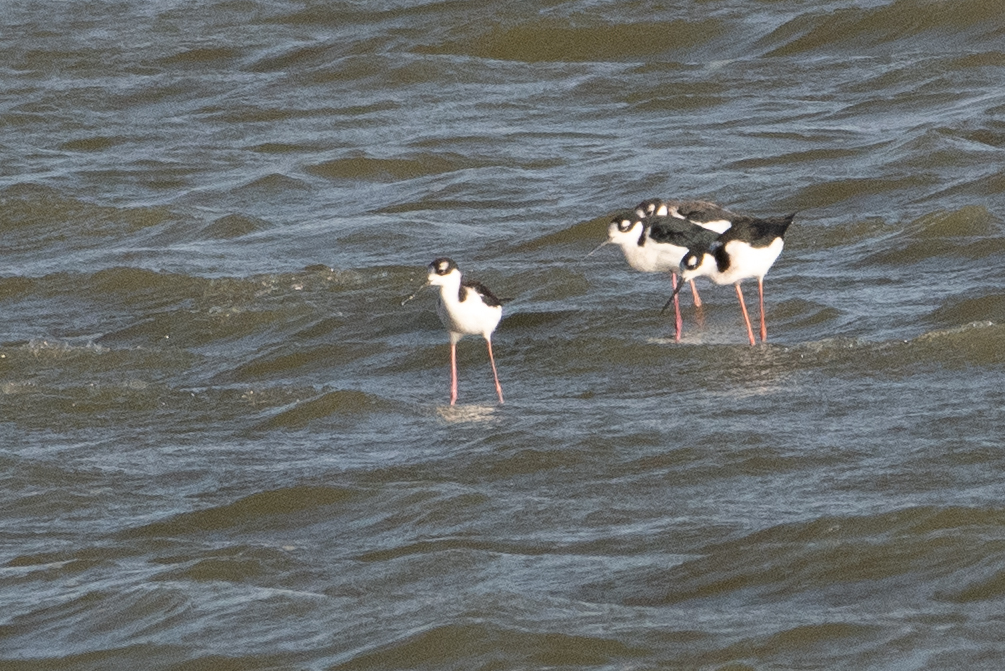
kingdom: Animalia
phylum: Chordata
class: Aves
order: Charadriiformes
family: Recurvirostridae
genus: Himantopus
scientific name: Himantopus mexicanus
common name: Black-necked stilt
